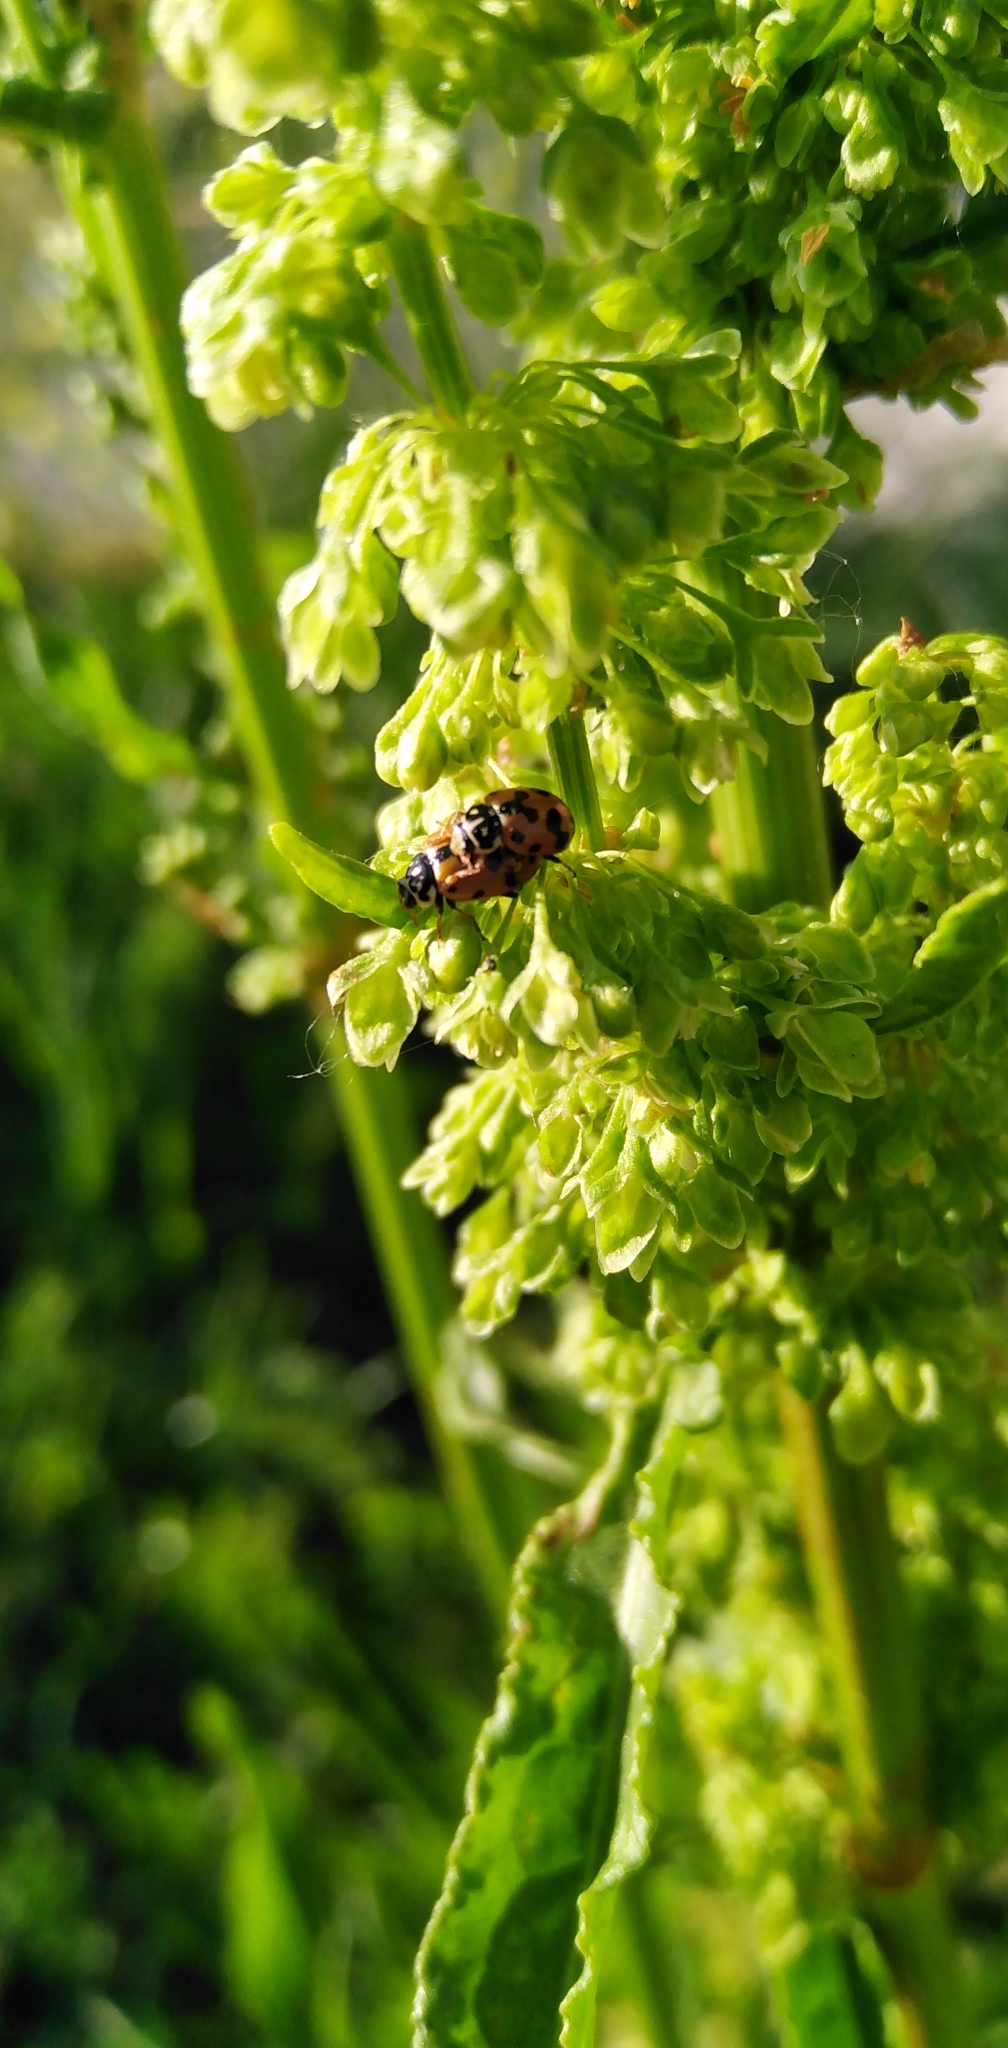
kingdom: Animalia
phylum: Arthropoda
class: Insecta
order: Coleoptera
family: Coccinellidae
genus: Hippodamia
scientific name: Hippodamia variegata
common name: Ladybird beetle
